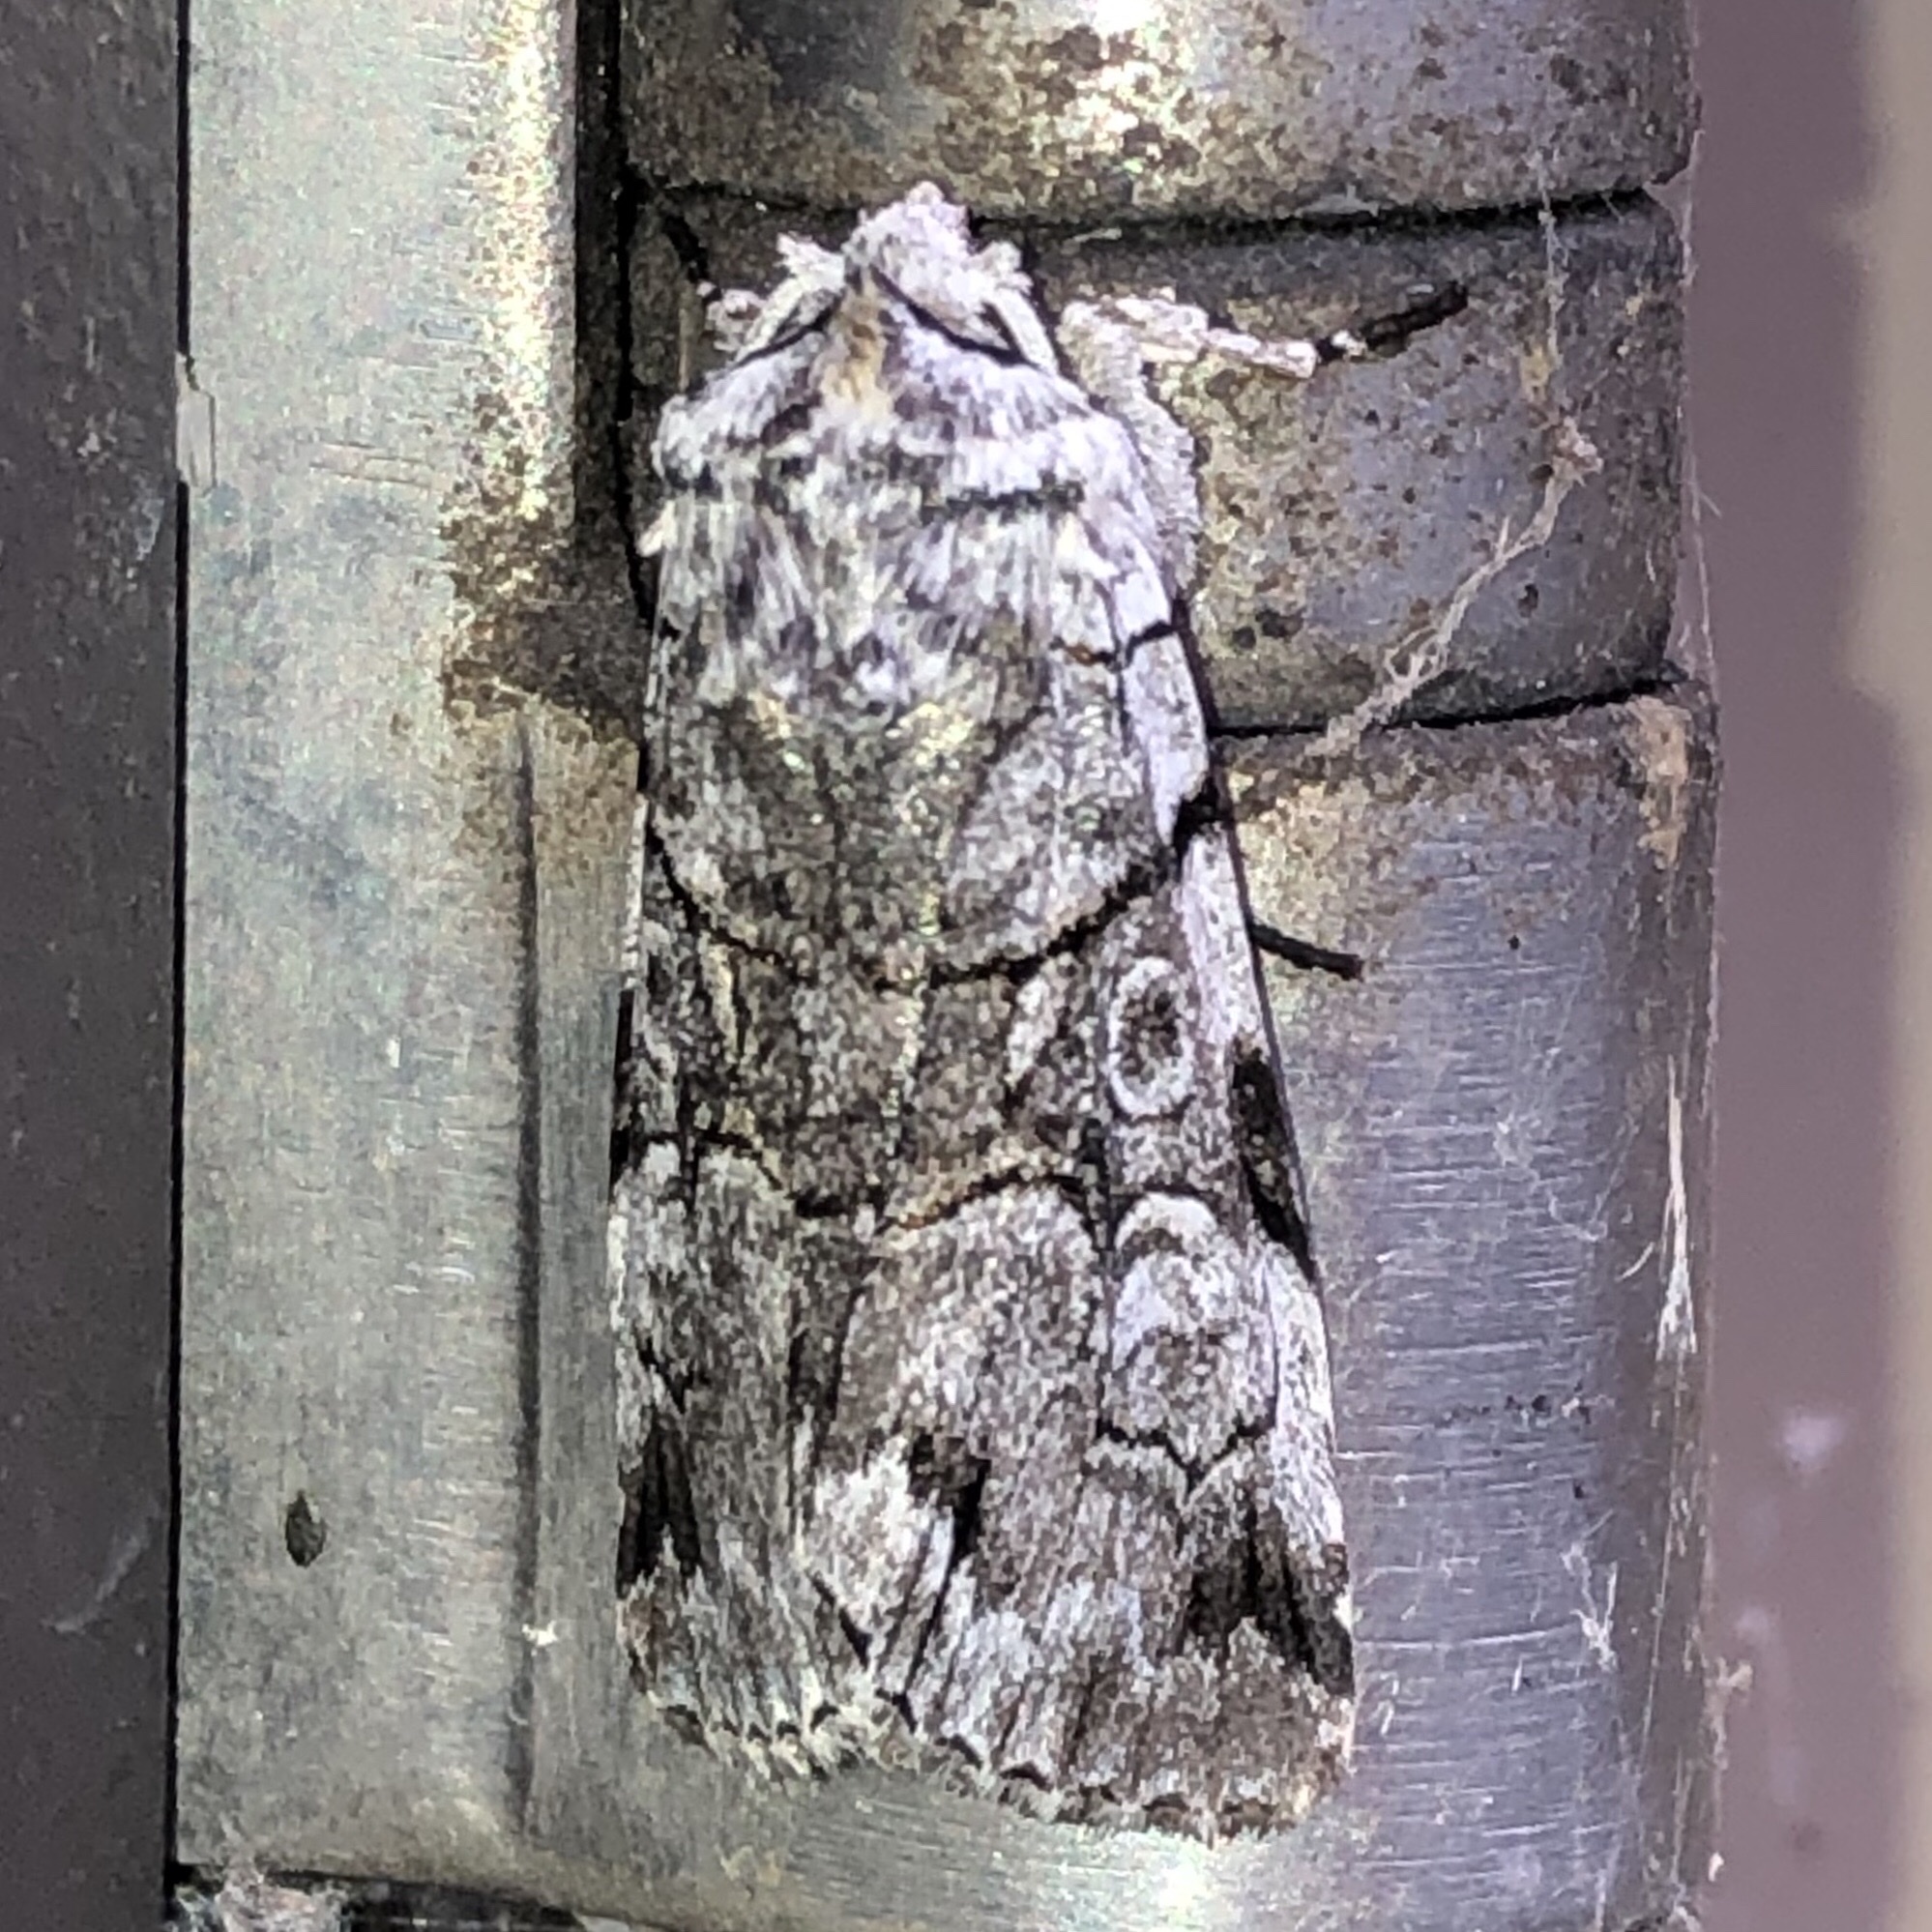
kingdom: Animalia
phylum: Arthropoda
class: Insecta
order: Lepidoptera
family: Noctuidae
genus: Sympistis
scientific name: Sympistis chionanthi
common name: Fringe-tree sallow
